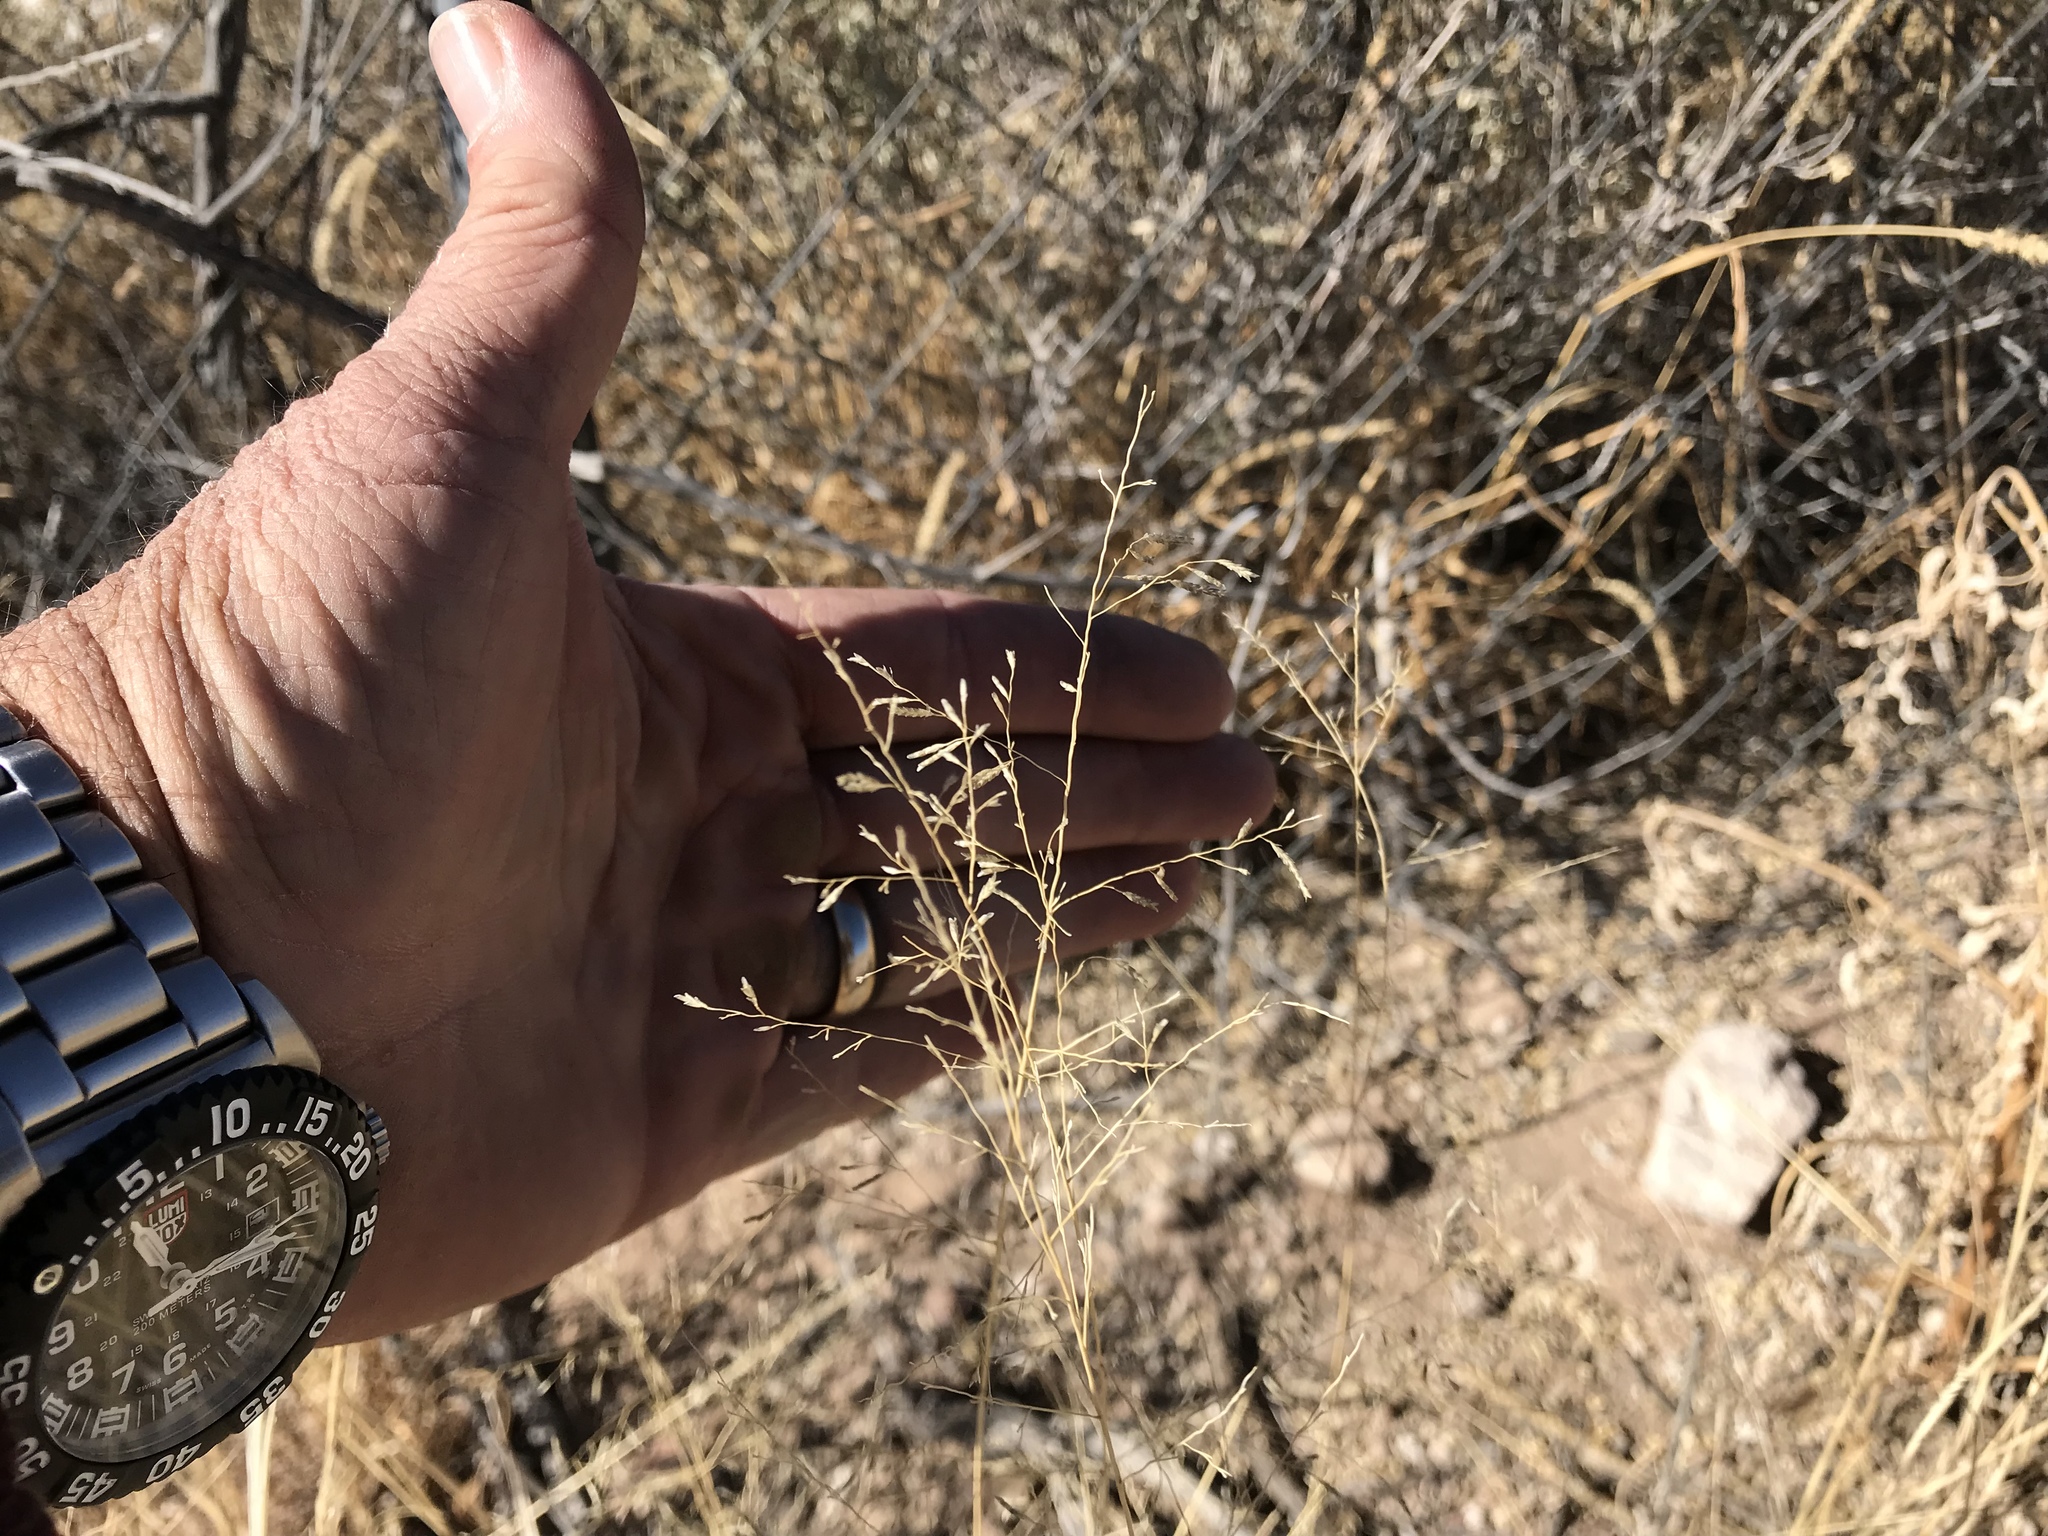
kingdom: Plantae
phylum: Tracheophyta
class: Liliopsida
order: Poales
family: Poaceae
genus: Eragrostis
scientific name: Eragrostis lehmanniana
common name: Lehmann lovegrass
